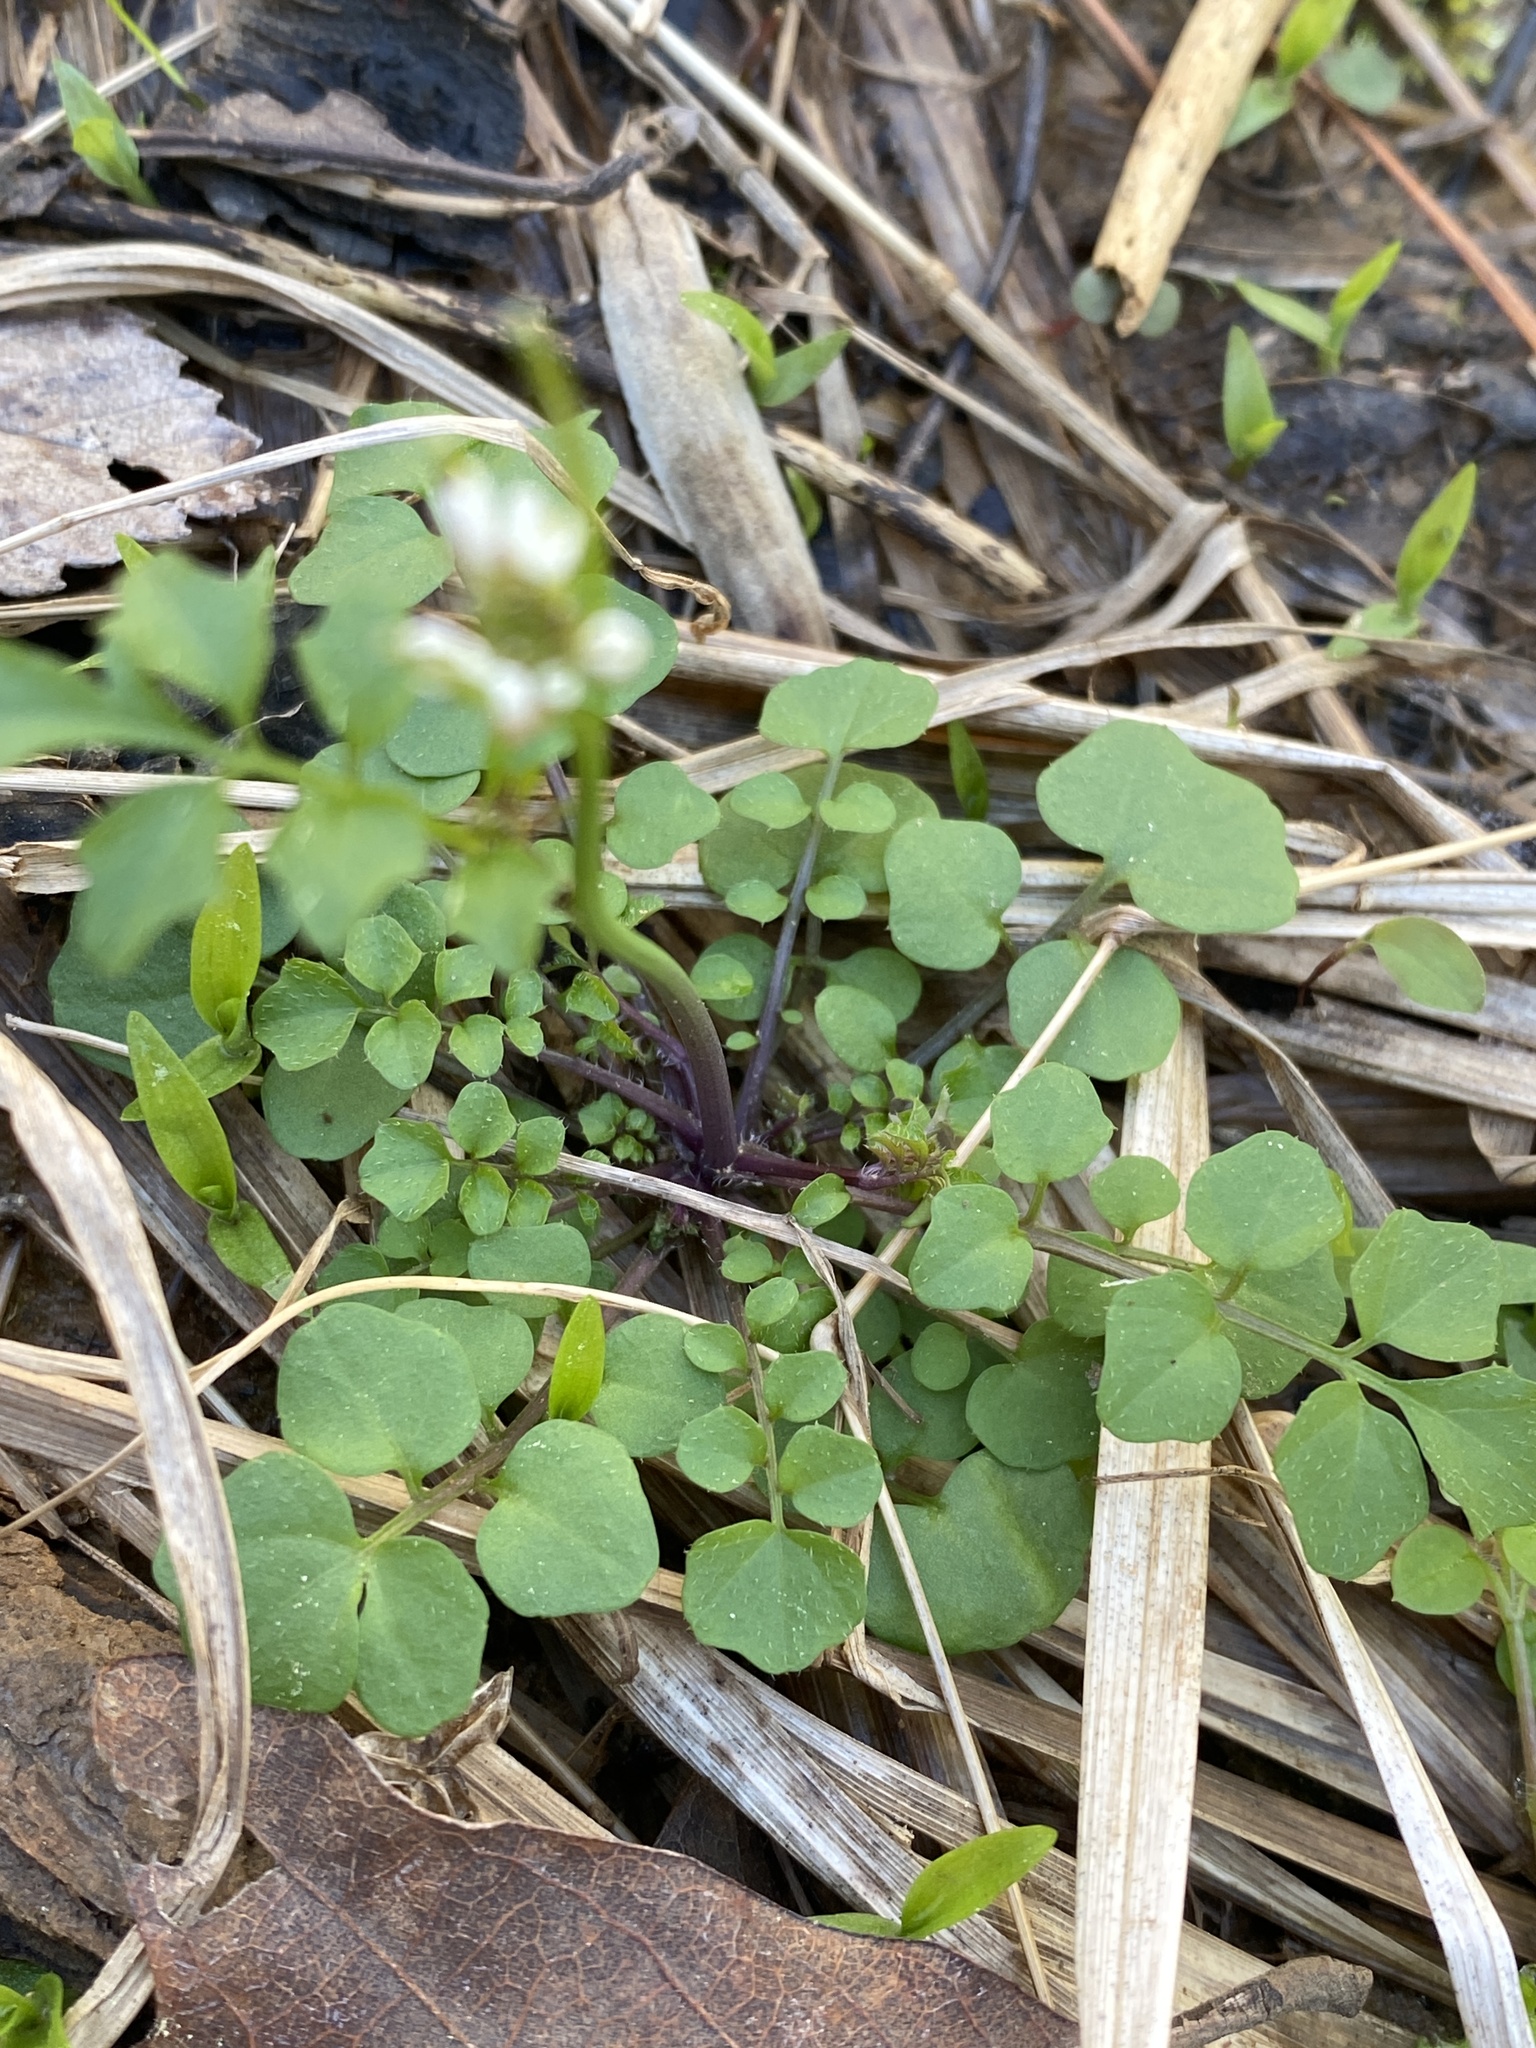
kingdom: Plantae
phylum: Tracheophyta
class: Magnoliopsida
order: Brassicales
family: Brassicaceae
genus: Cardamine
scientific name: Cardamine hirsuta
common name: Hairy bittercress
